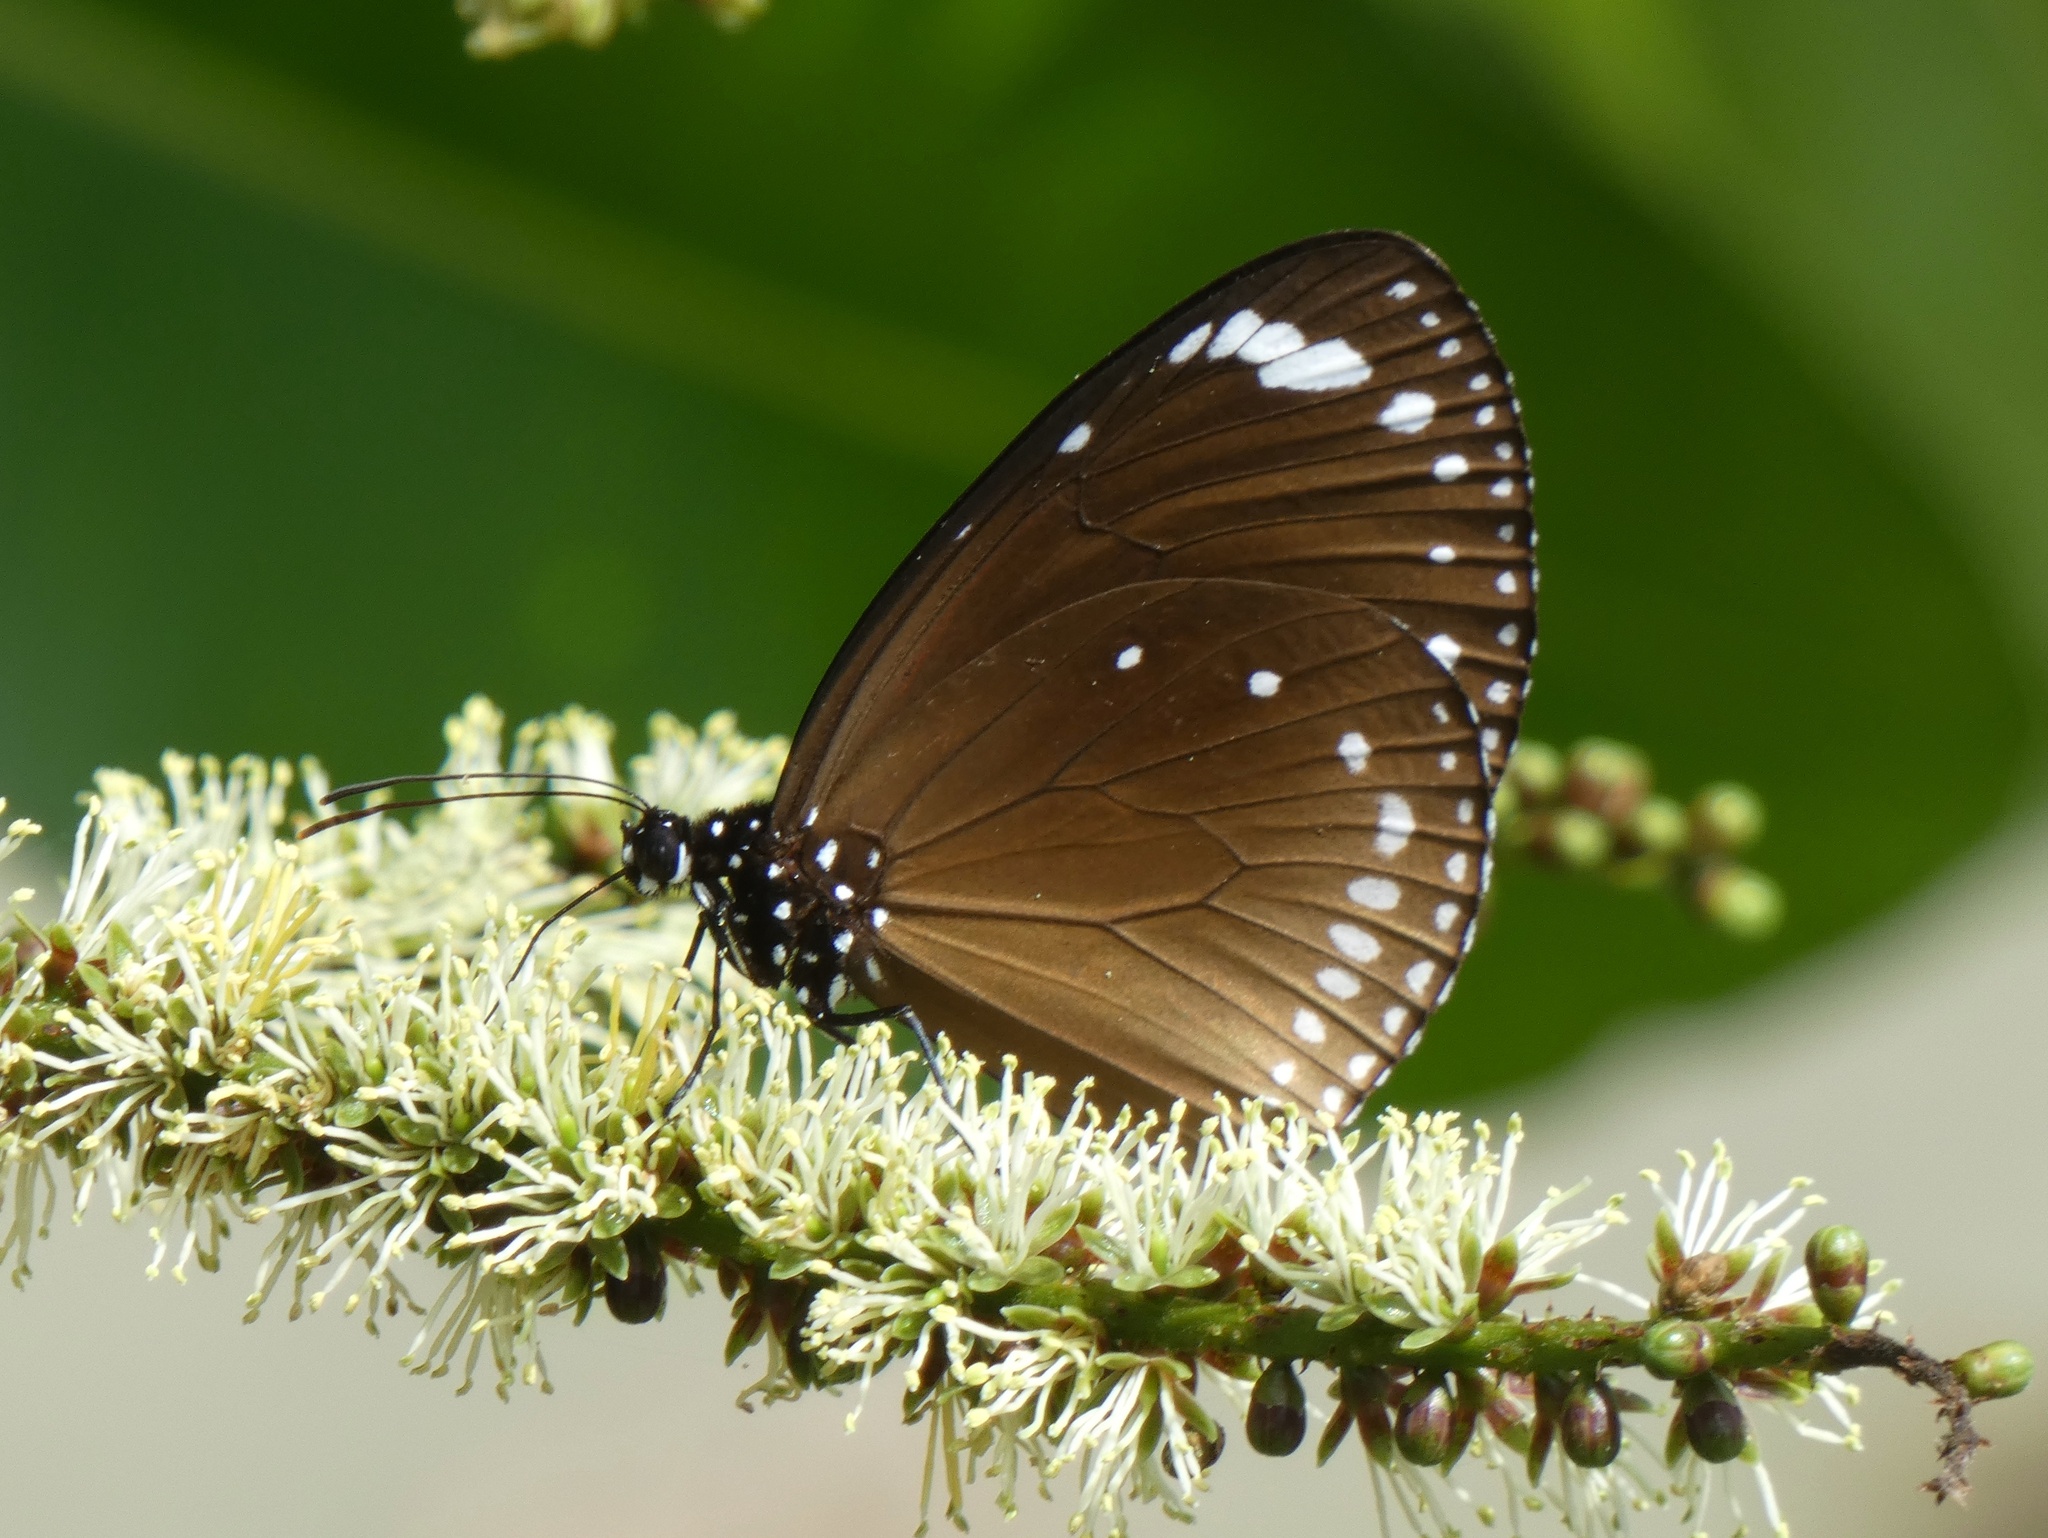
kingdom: Animalia
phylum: Arthropoda
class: Insecta
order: Lepidoptera
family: Nymphalidae
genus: Euploea
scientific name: Euploea tulliolus
